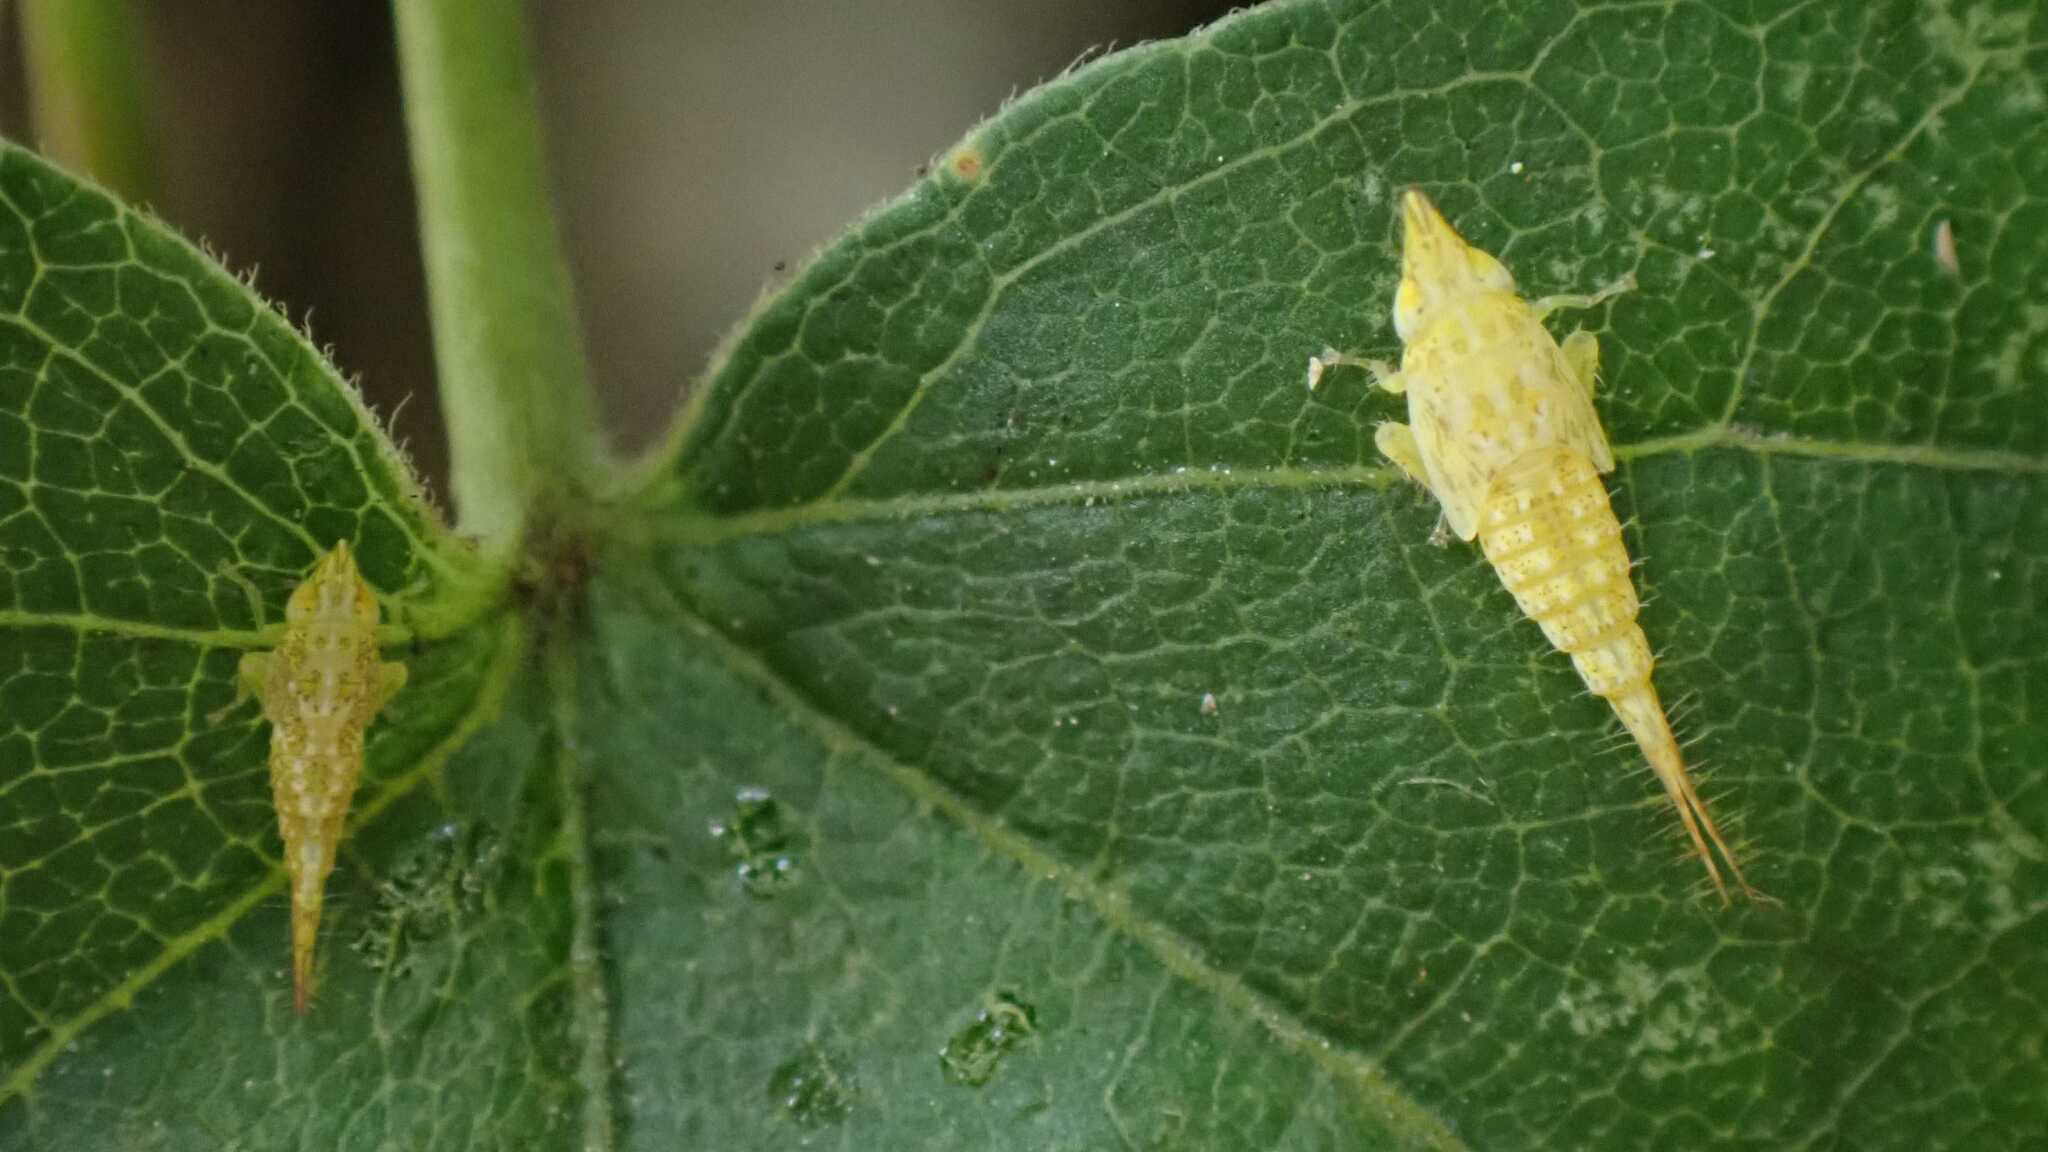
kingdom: Animalia
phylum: Arthropoda
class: Insecta
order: Hemiptera
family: Cicadellidae
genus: Japananus
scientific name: Japananus hyalinus
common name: The japanese maple leafhopper
